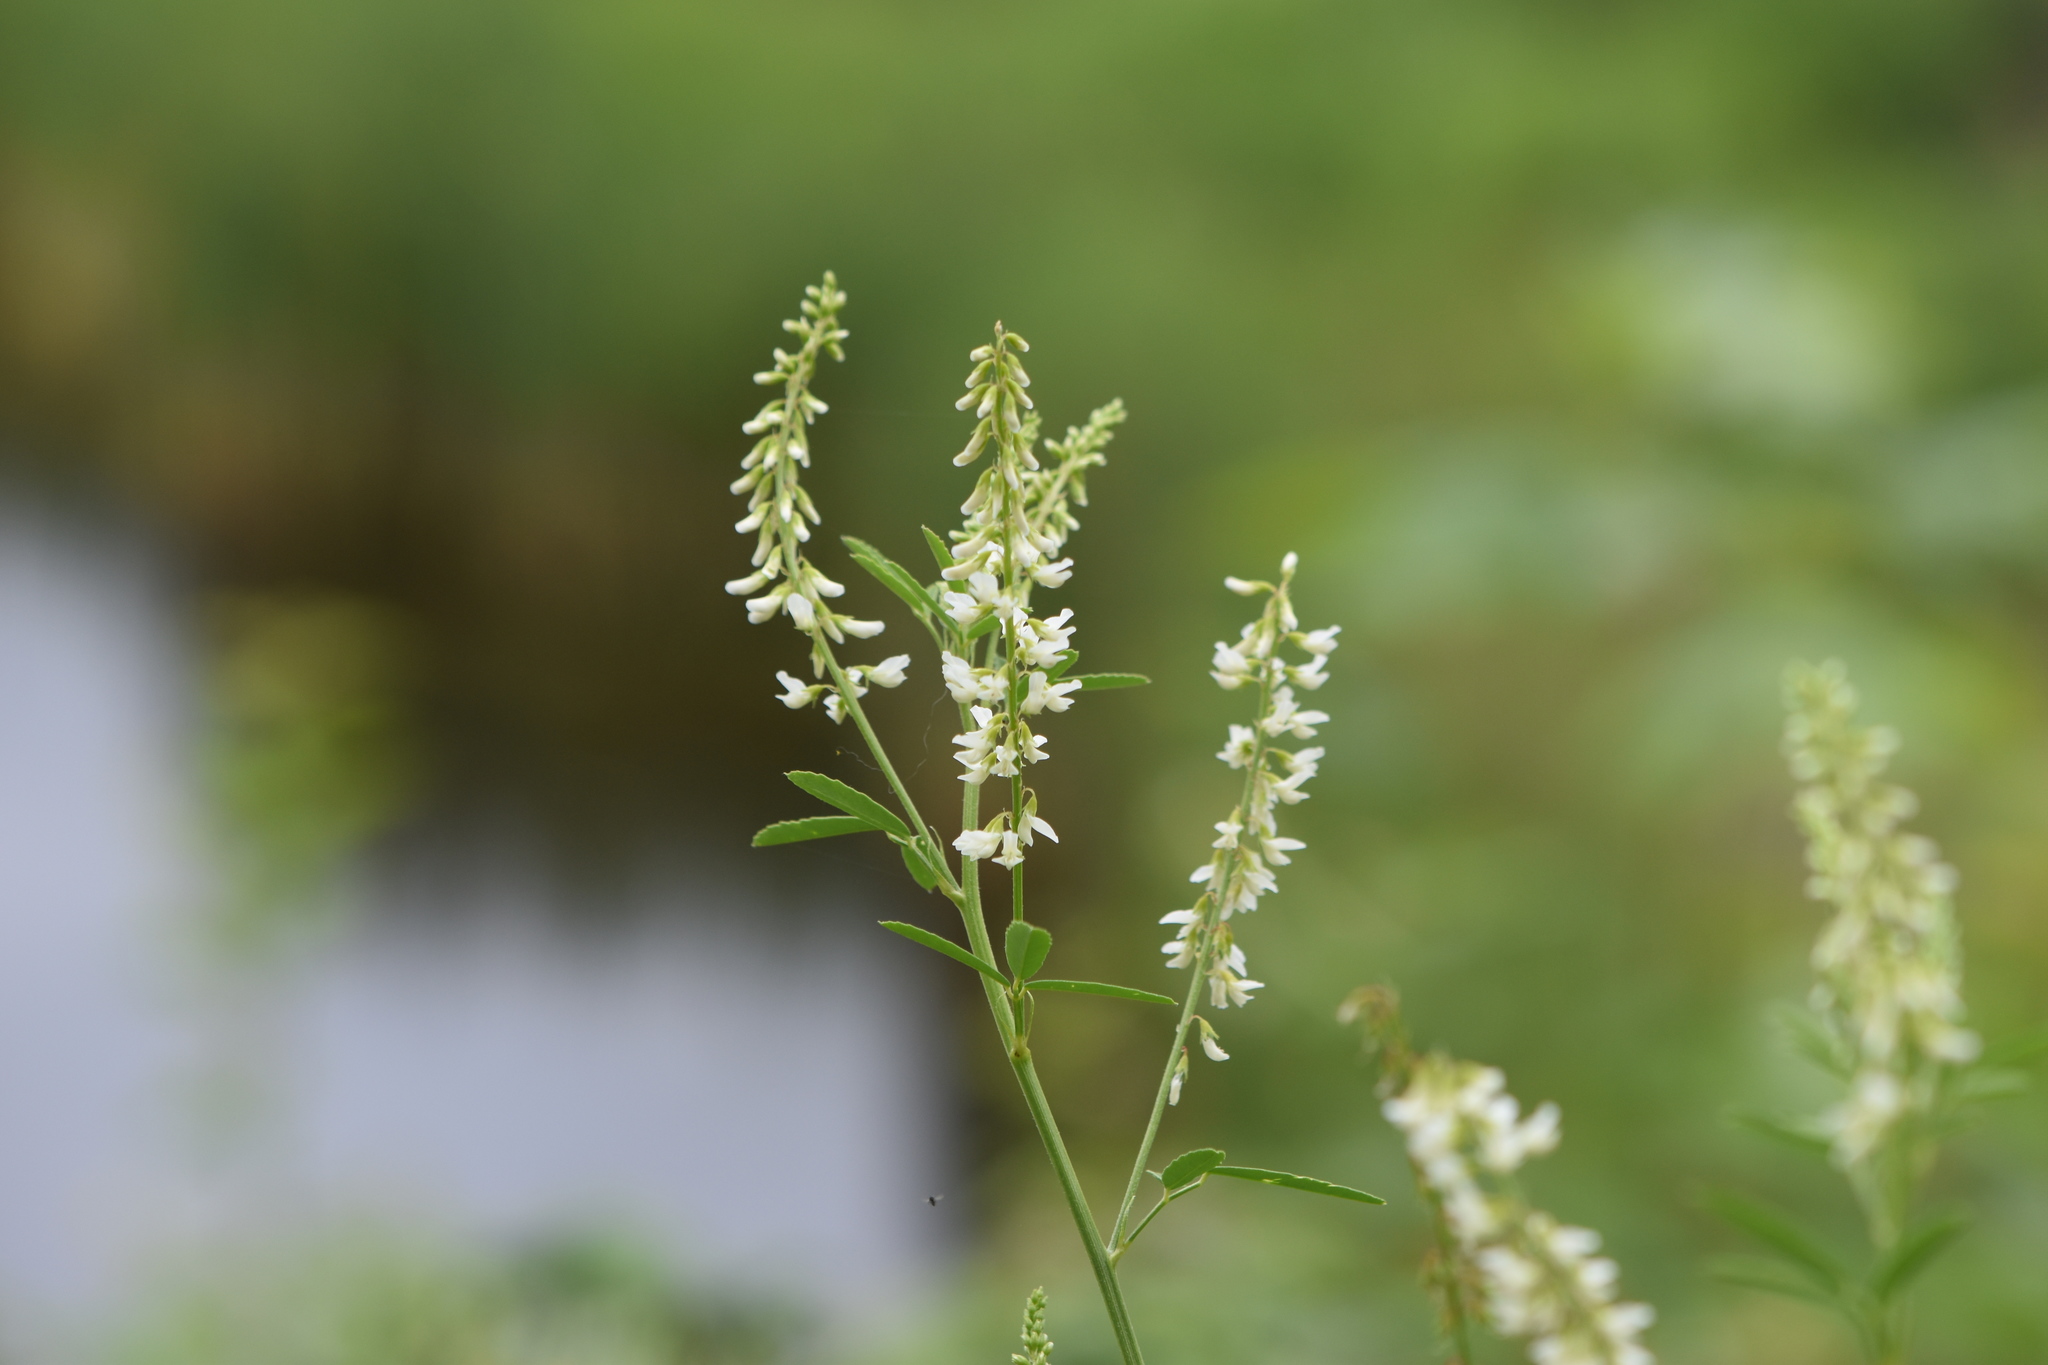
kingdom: Plantae
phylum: Tracheophyta
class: Magnoliopsida
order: Fabales
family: Fabaceae
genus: Melilotus
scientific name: Melilotus albus
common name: White melilot
